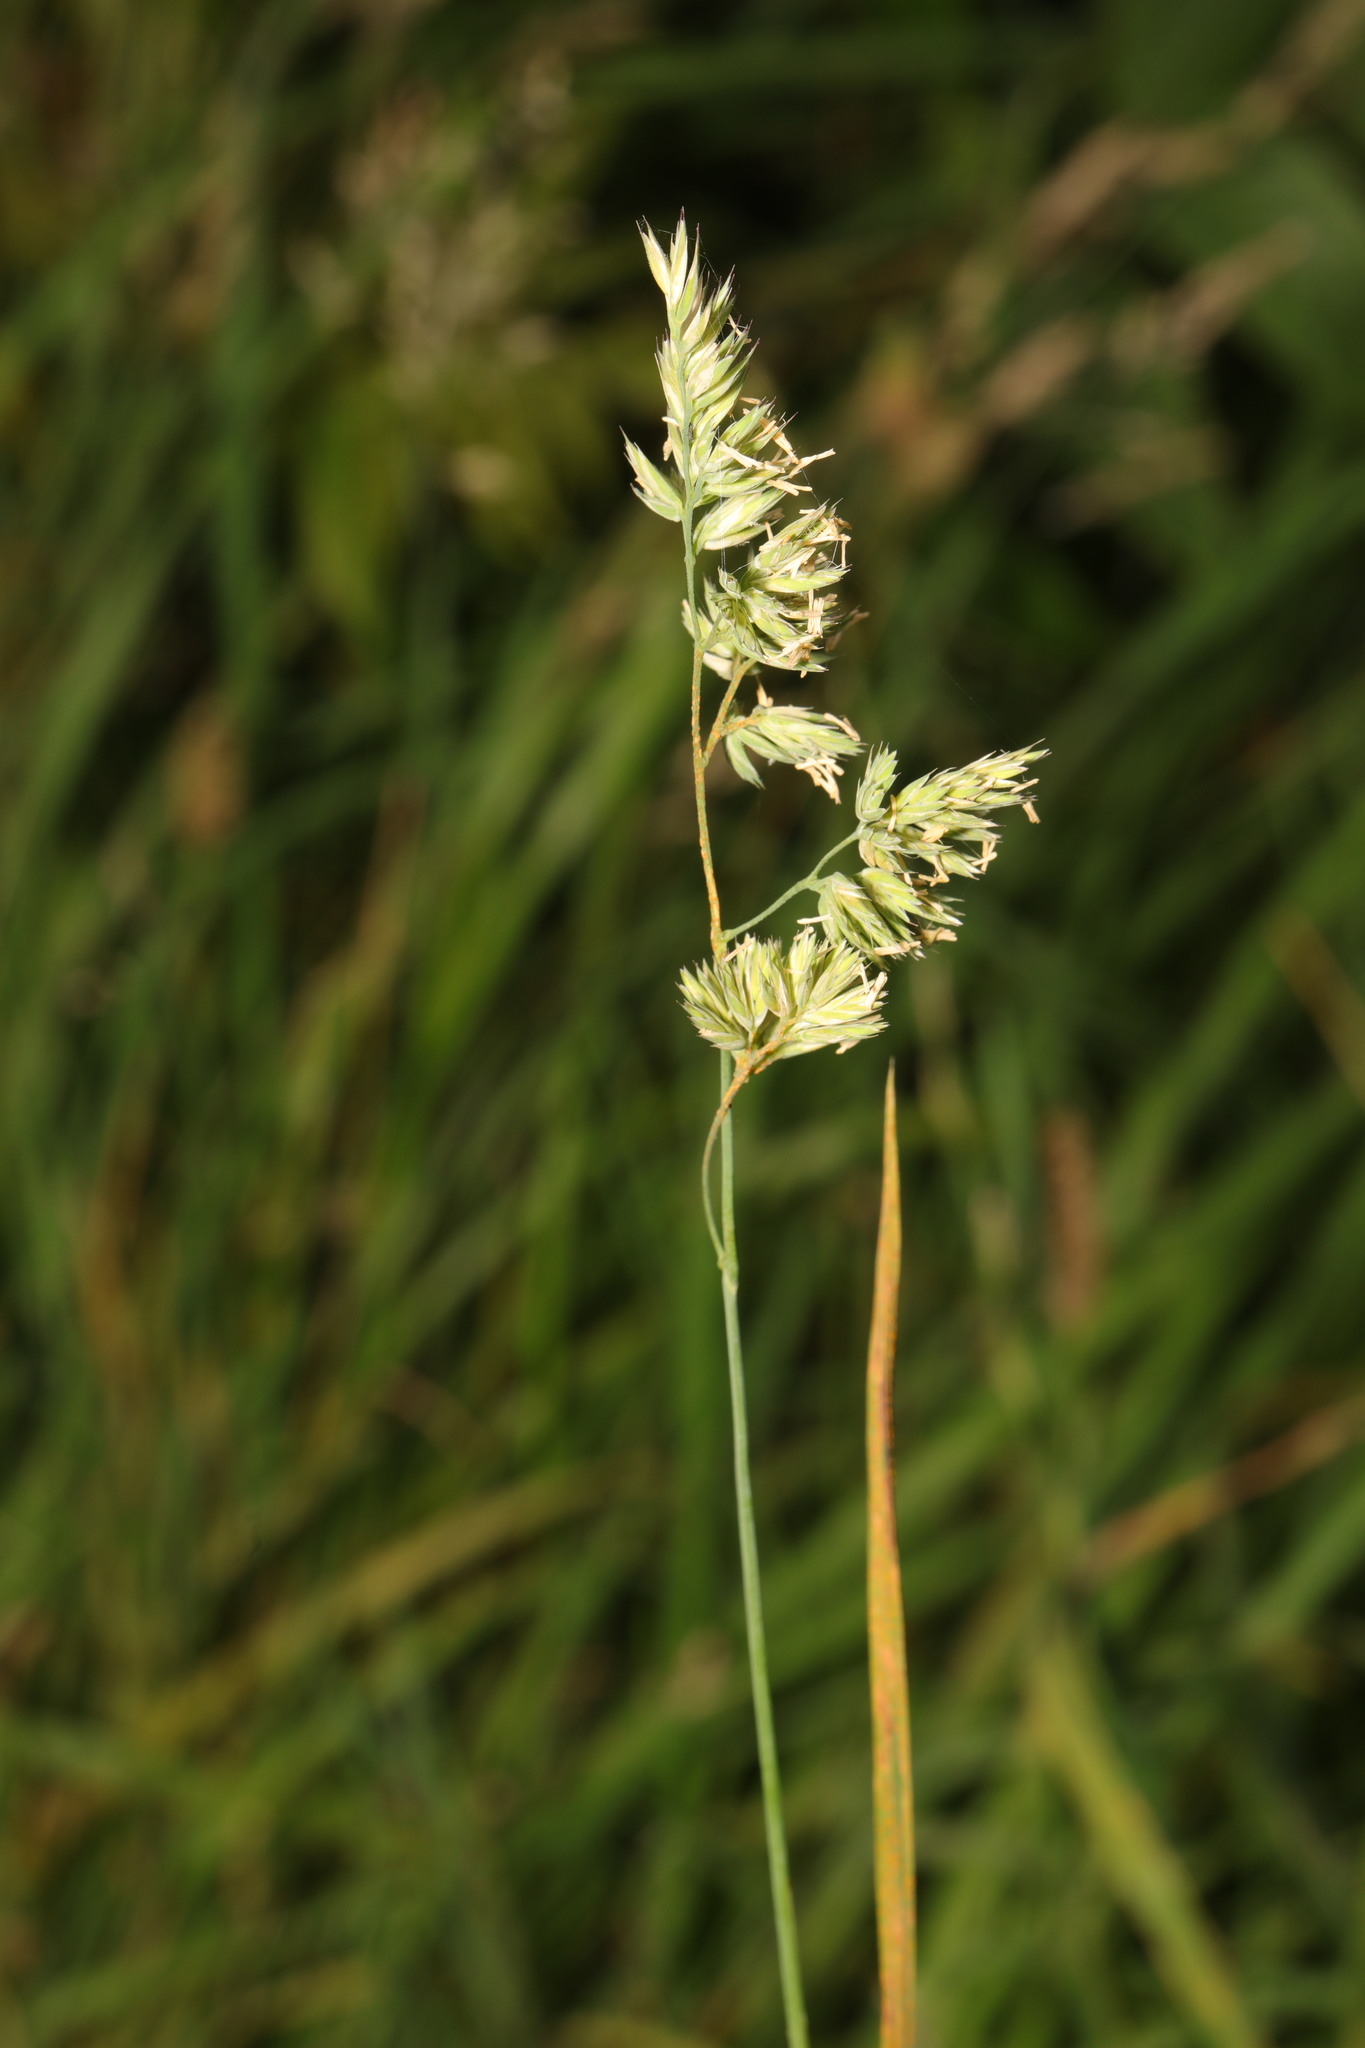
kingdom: Plantae
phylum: Tracheophyta
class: Liliopsida
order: Poales
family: Poaceae
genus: Dactylis
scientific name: Dactylis glomerata
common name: Orchardgrass
